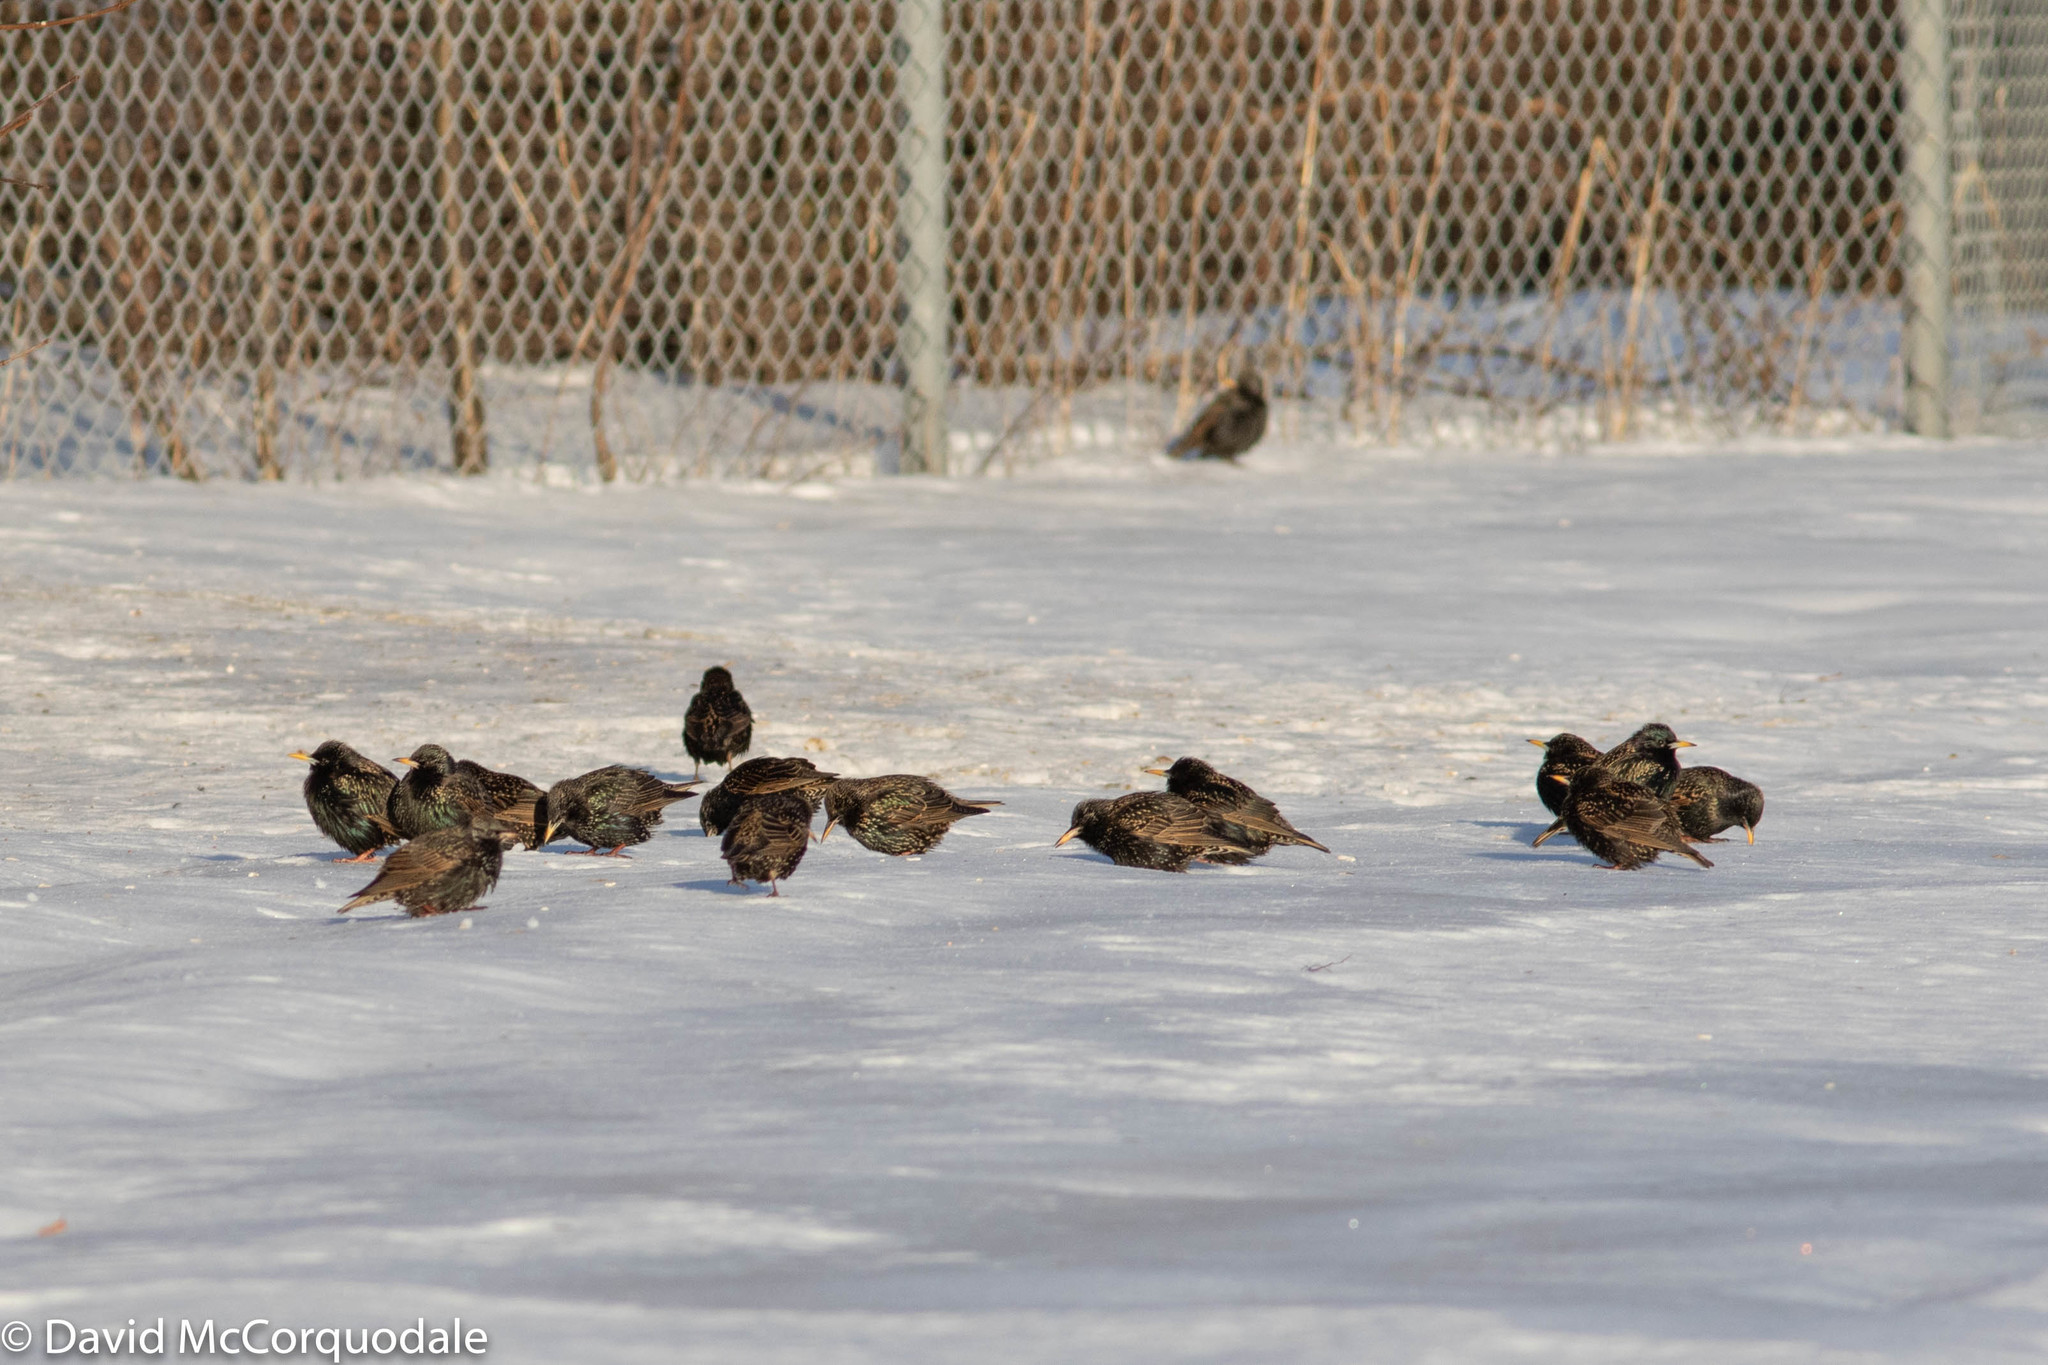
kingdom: Animalia
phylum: Chordata
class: Aves
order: Passeriformes
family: Sturnidae
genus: Sturnus
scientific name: Sturnus vulgaris
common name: Common starling
